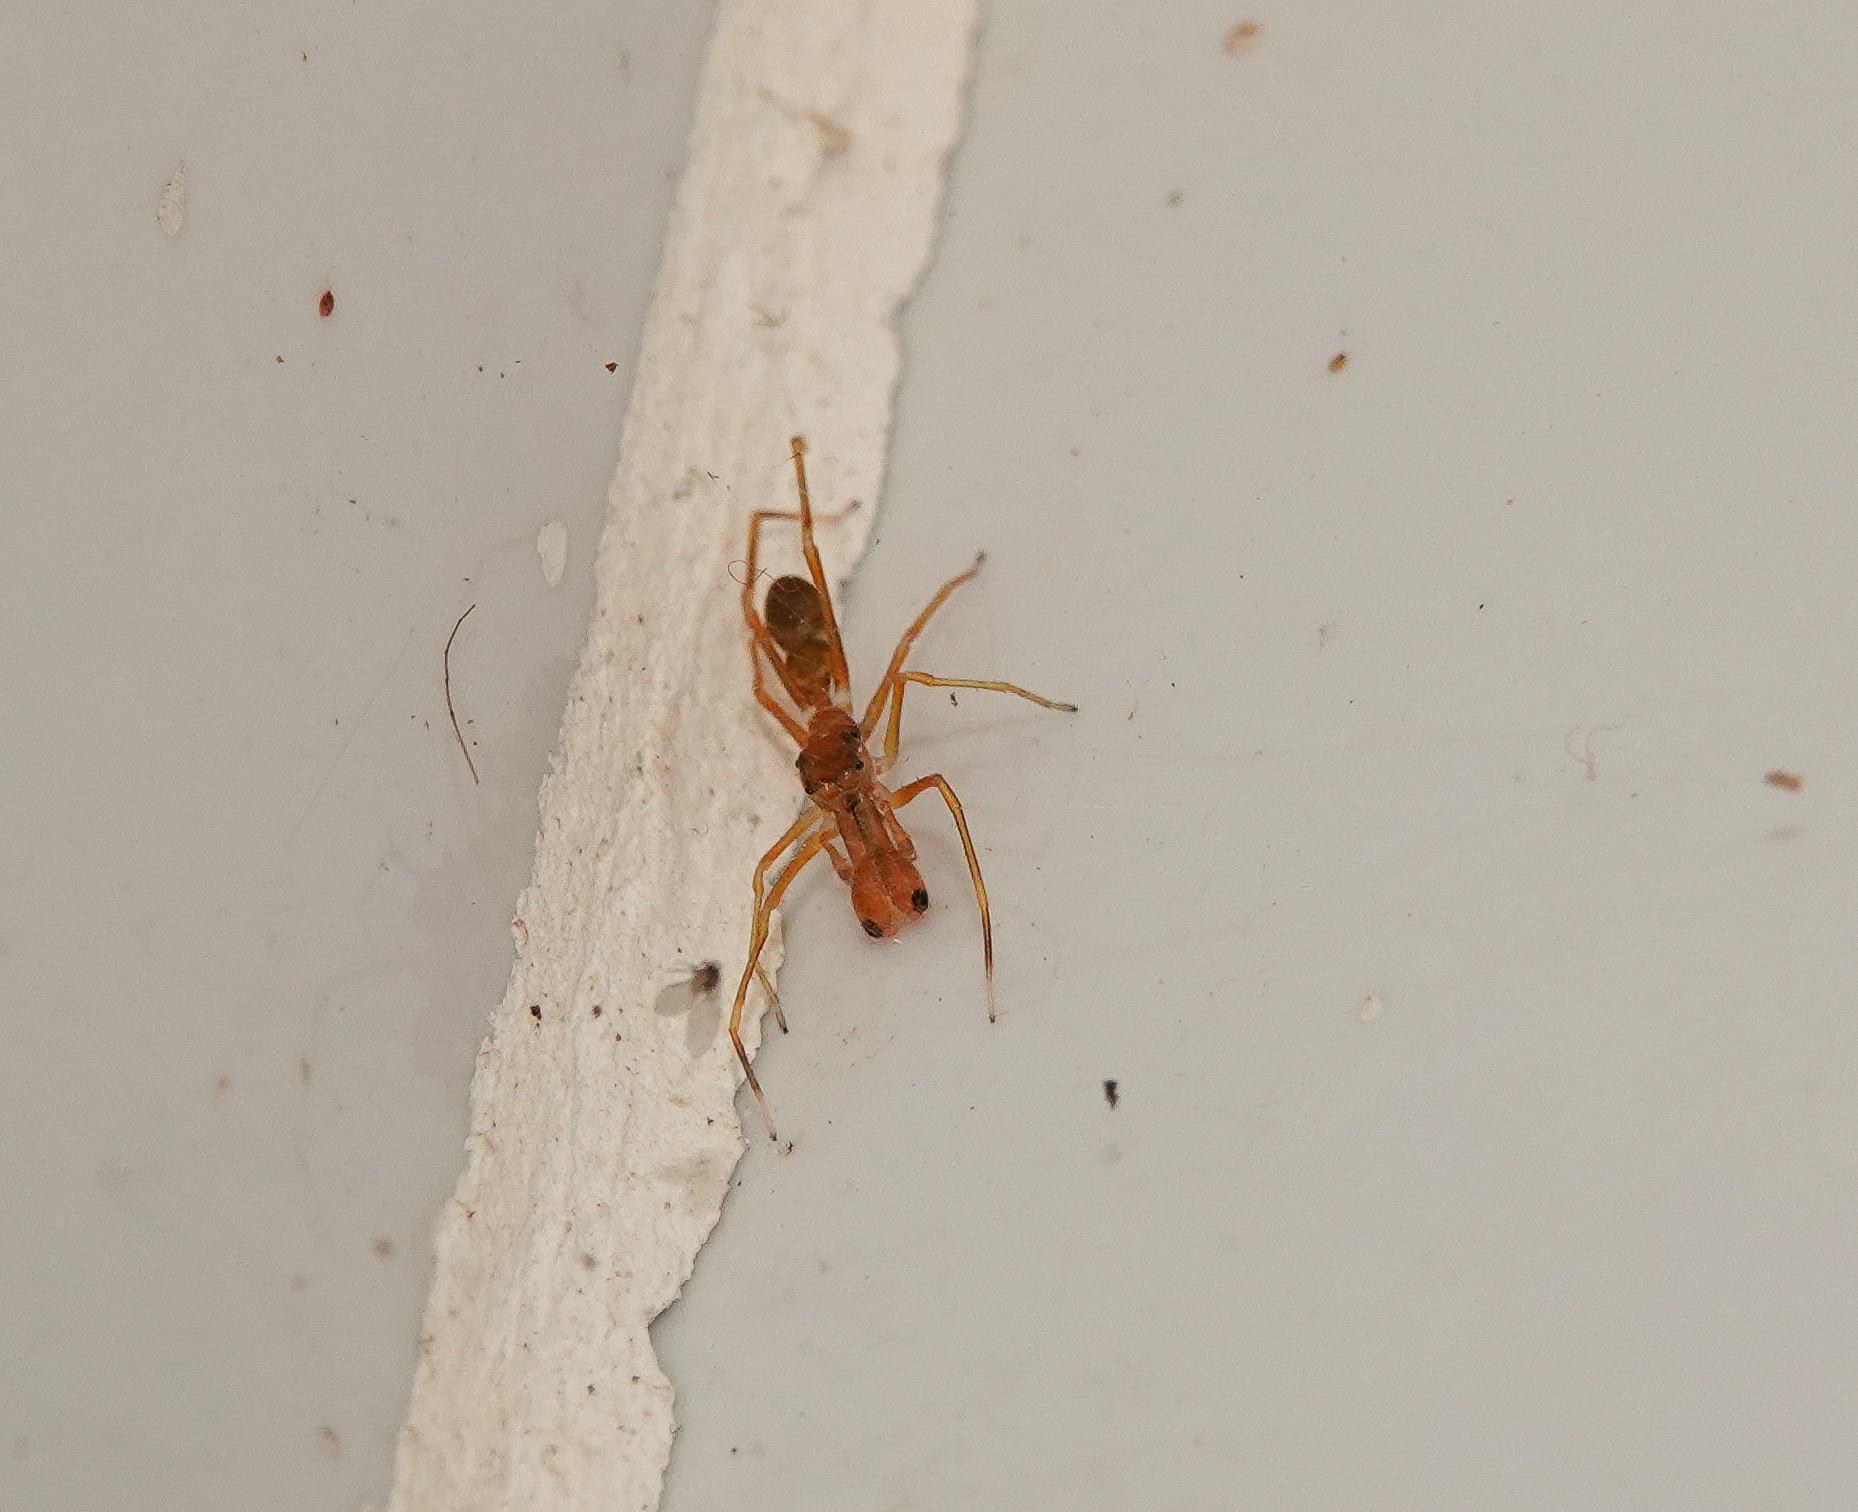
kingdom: Animalia
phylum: Arthropoda
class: Arachnida
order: Araneae
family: Salticidae
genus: Myrmaplata
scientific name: Myrmaplata plataleoides
